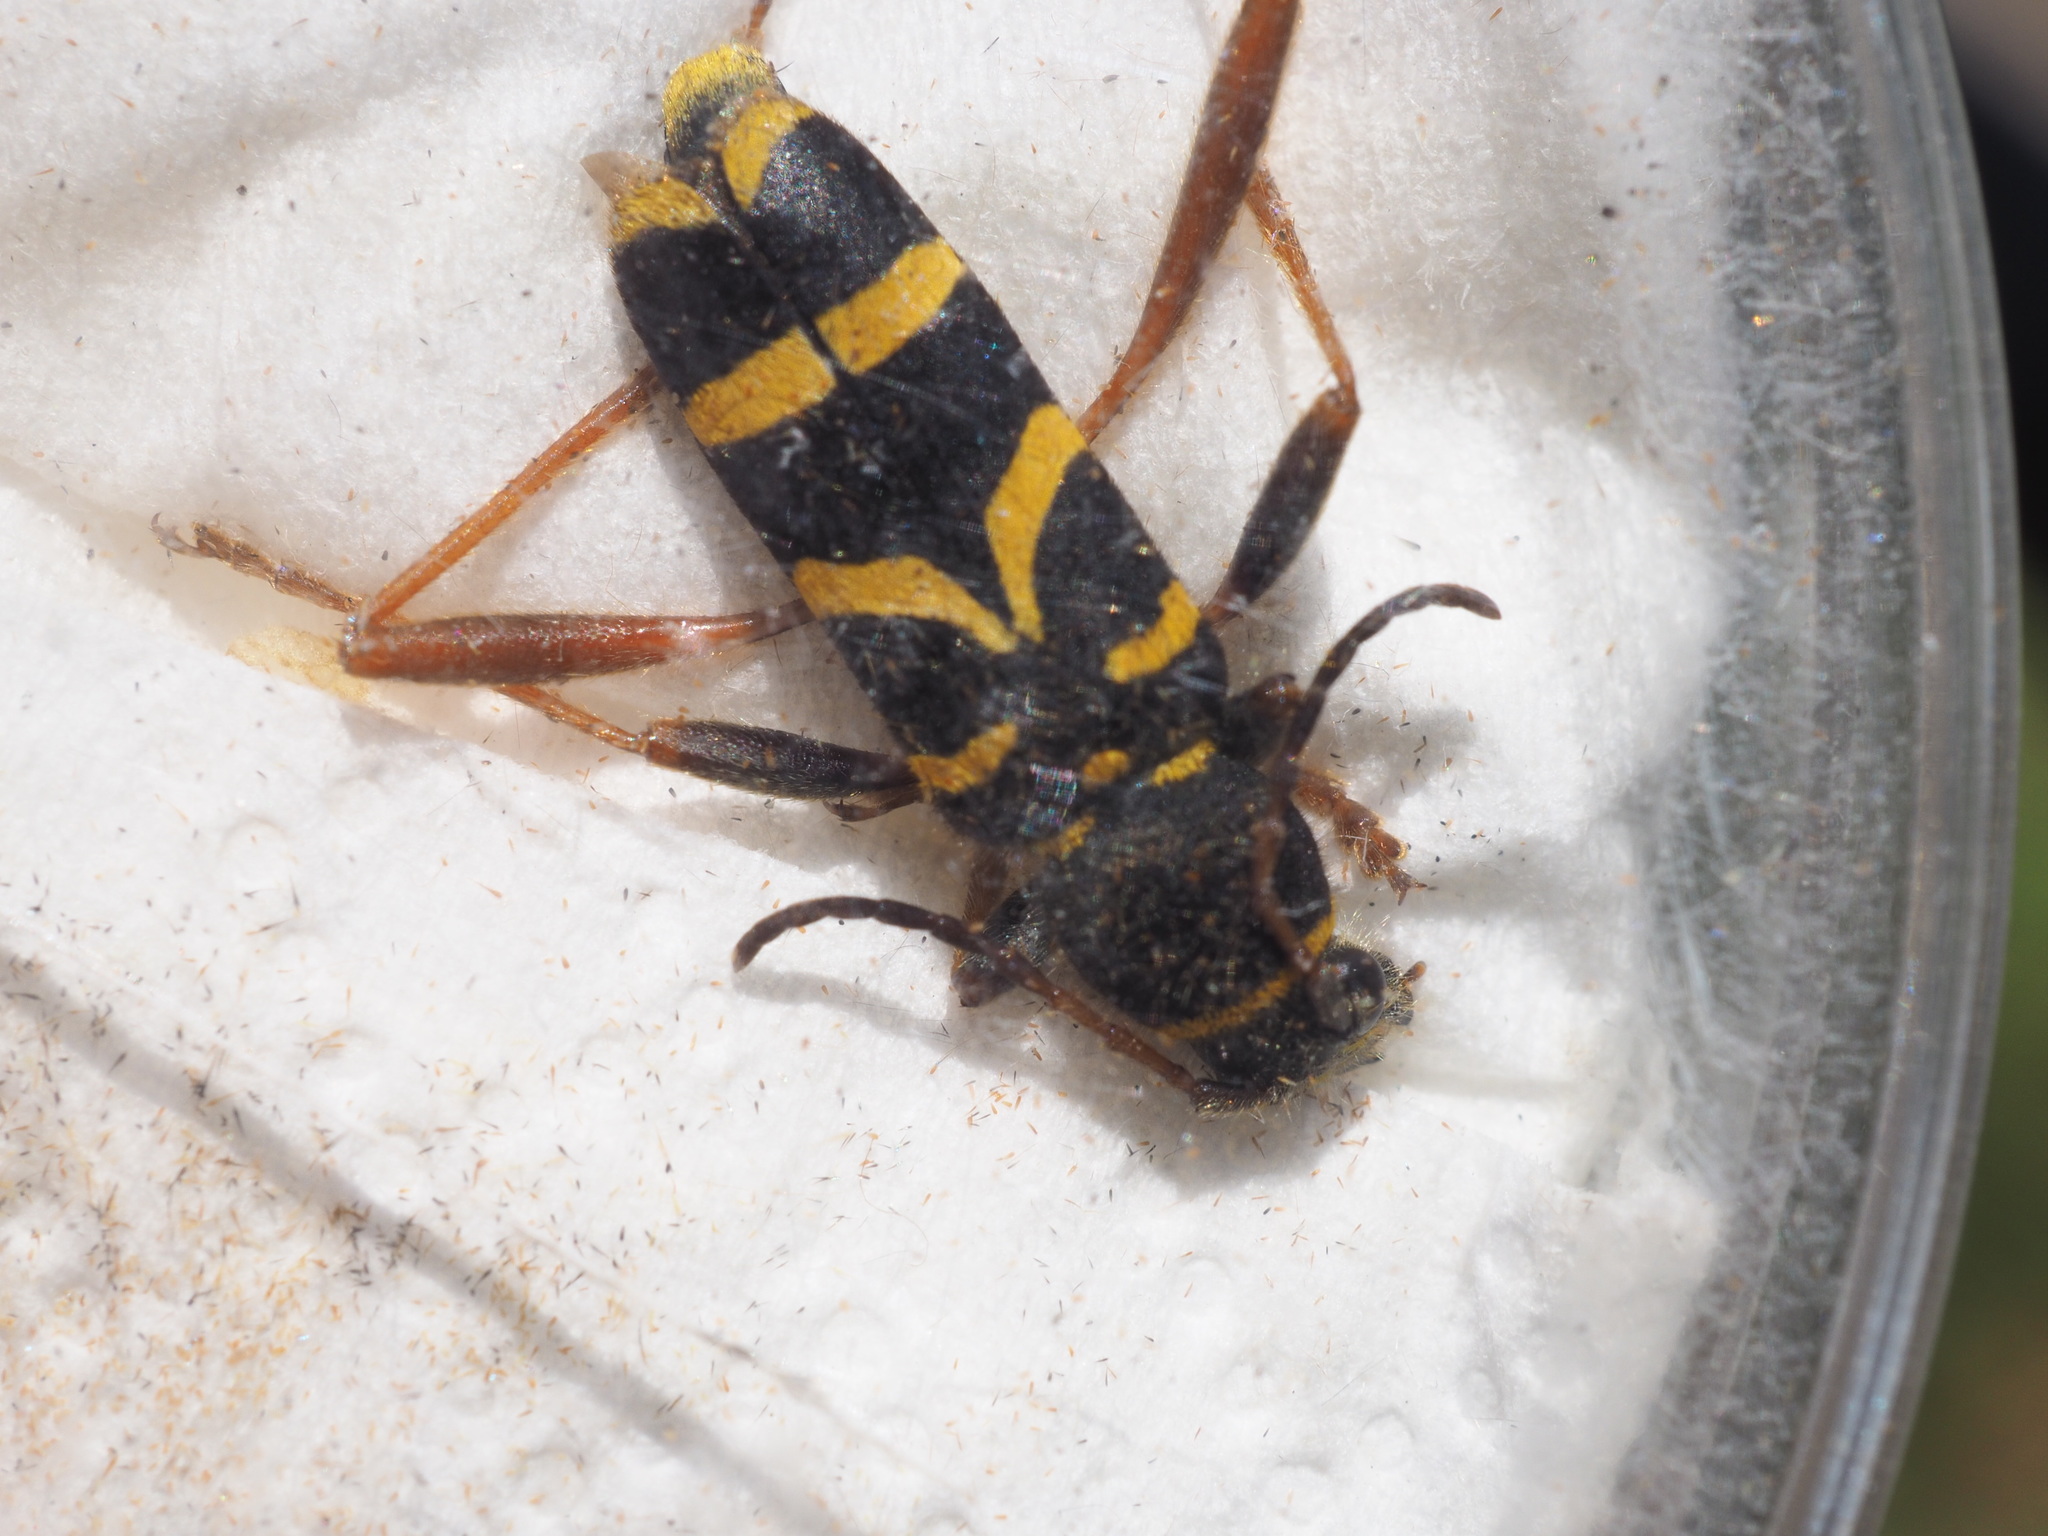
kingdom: Animalia
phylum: Arthropoda
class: Insecta
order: Coleoptera
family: Cerambycidae
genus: Clytus
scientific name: Clytus arietis
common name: Wasp beetle
